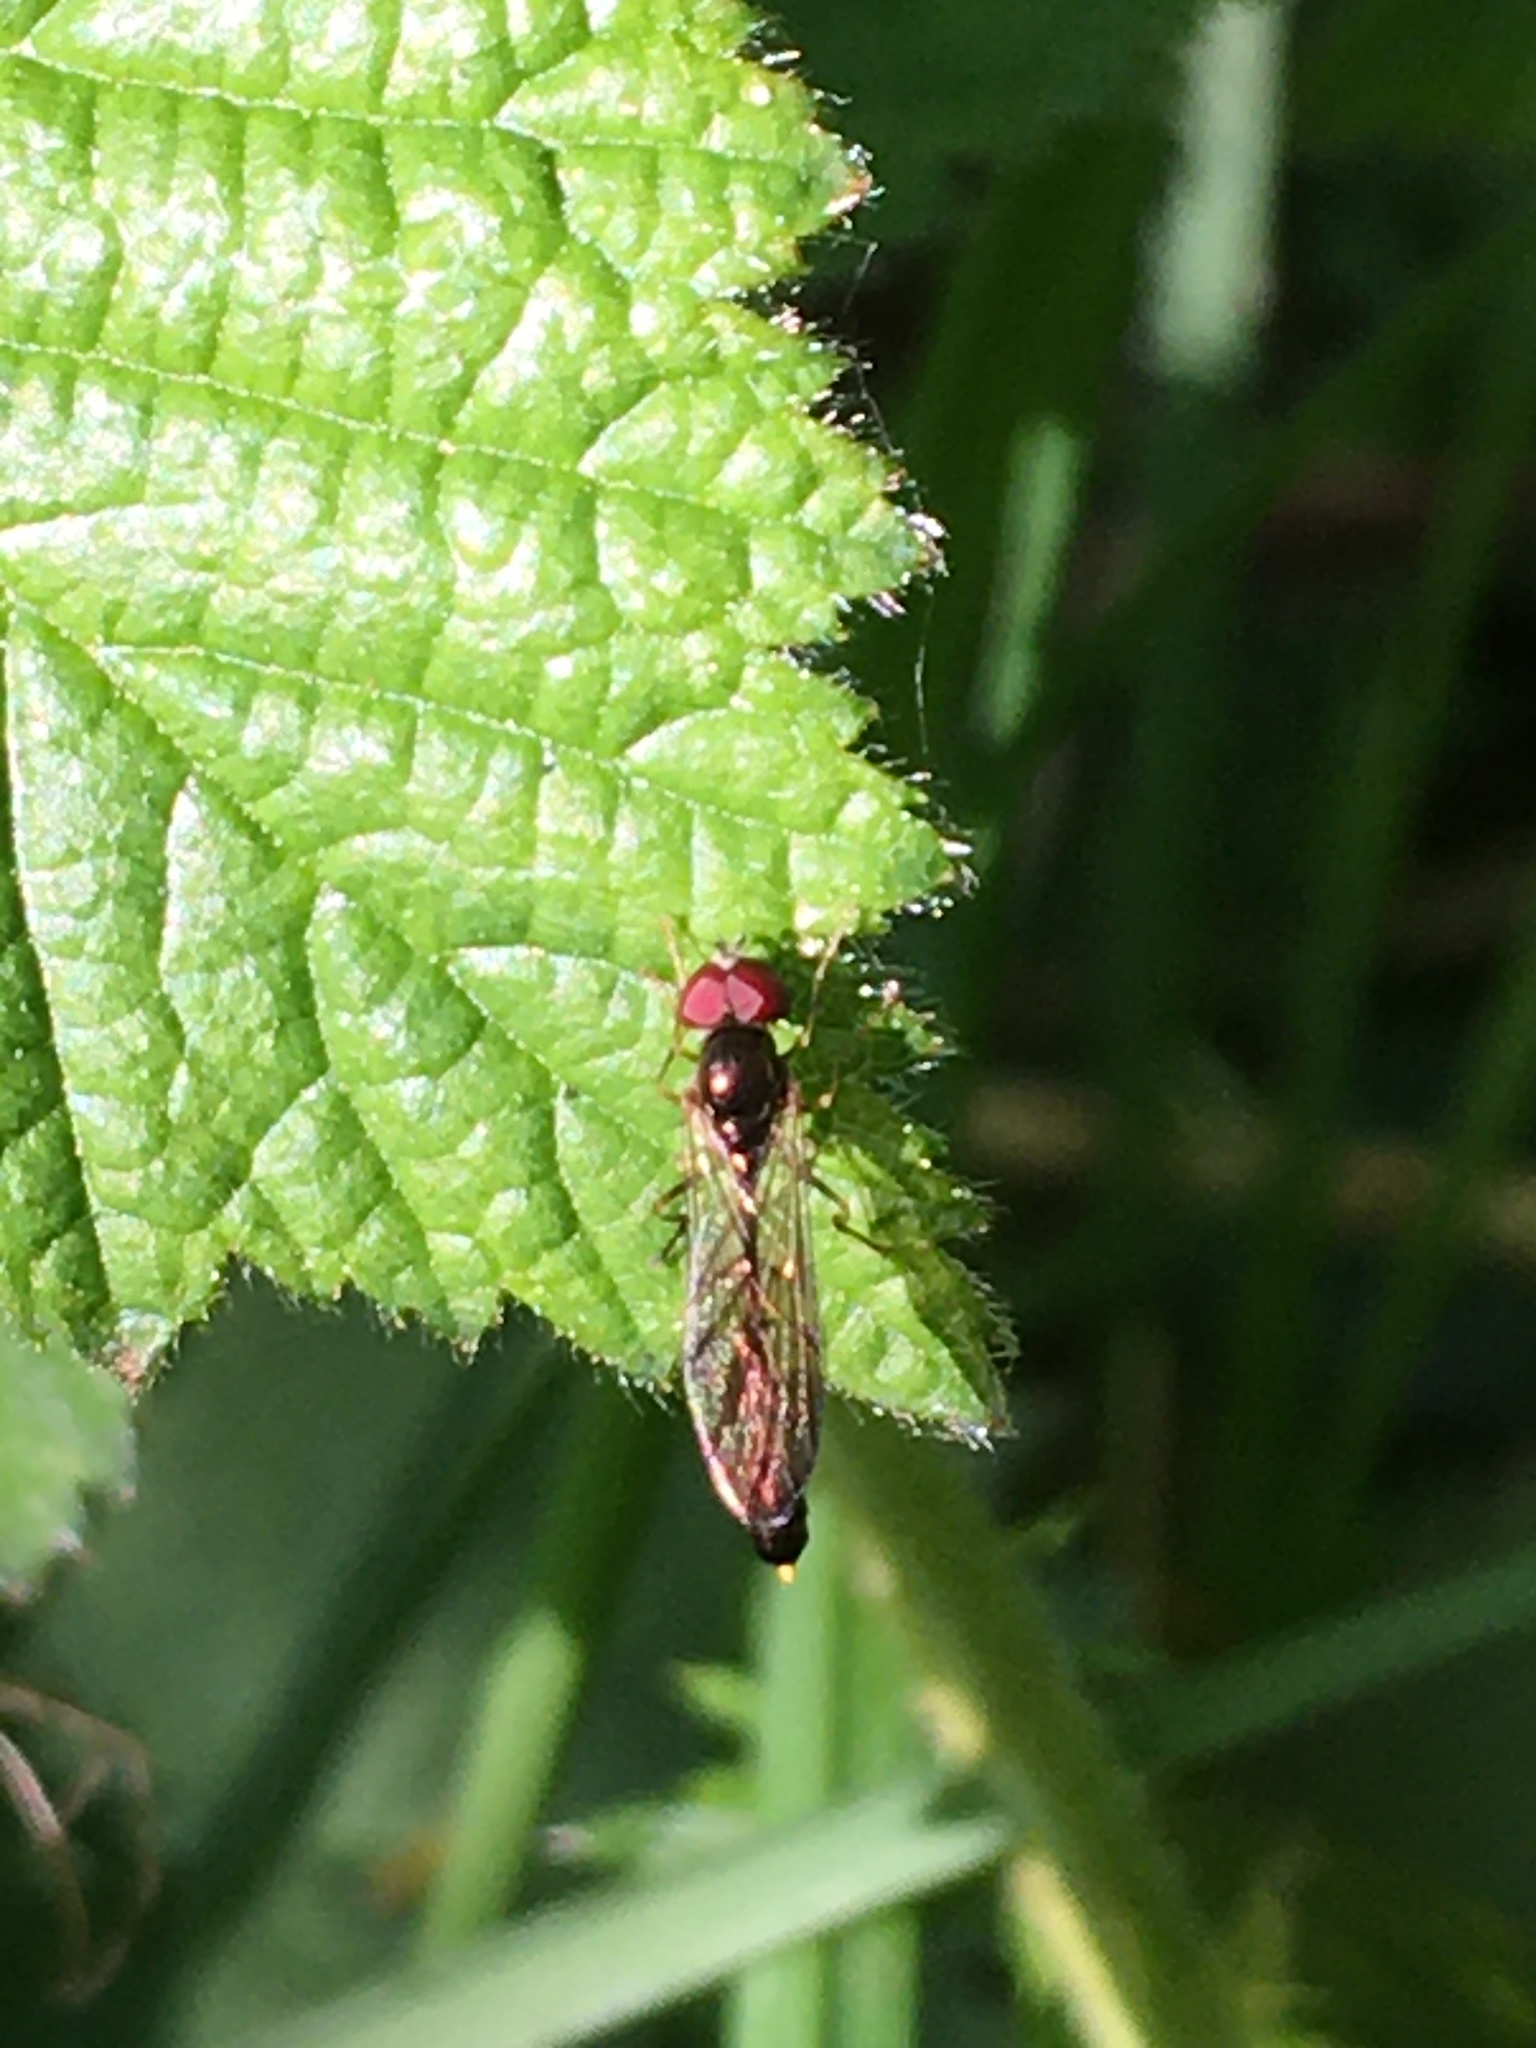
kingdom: Animalia
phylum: Arthropoda
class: Insecta
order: Diptera
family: Syrphidae
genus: Baccha
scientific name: Baccha elongata
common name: Common dainty
